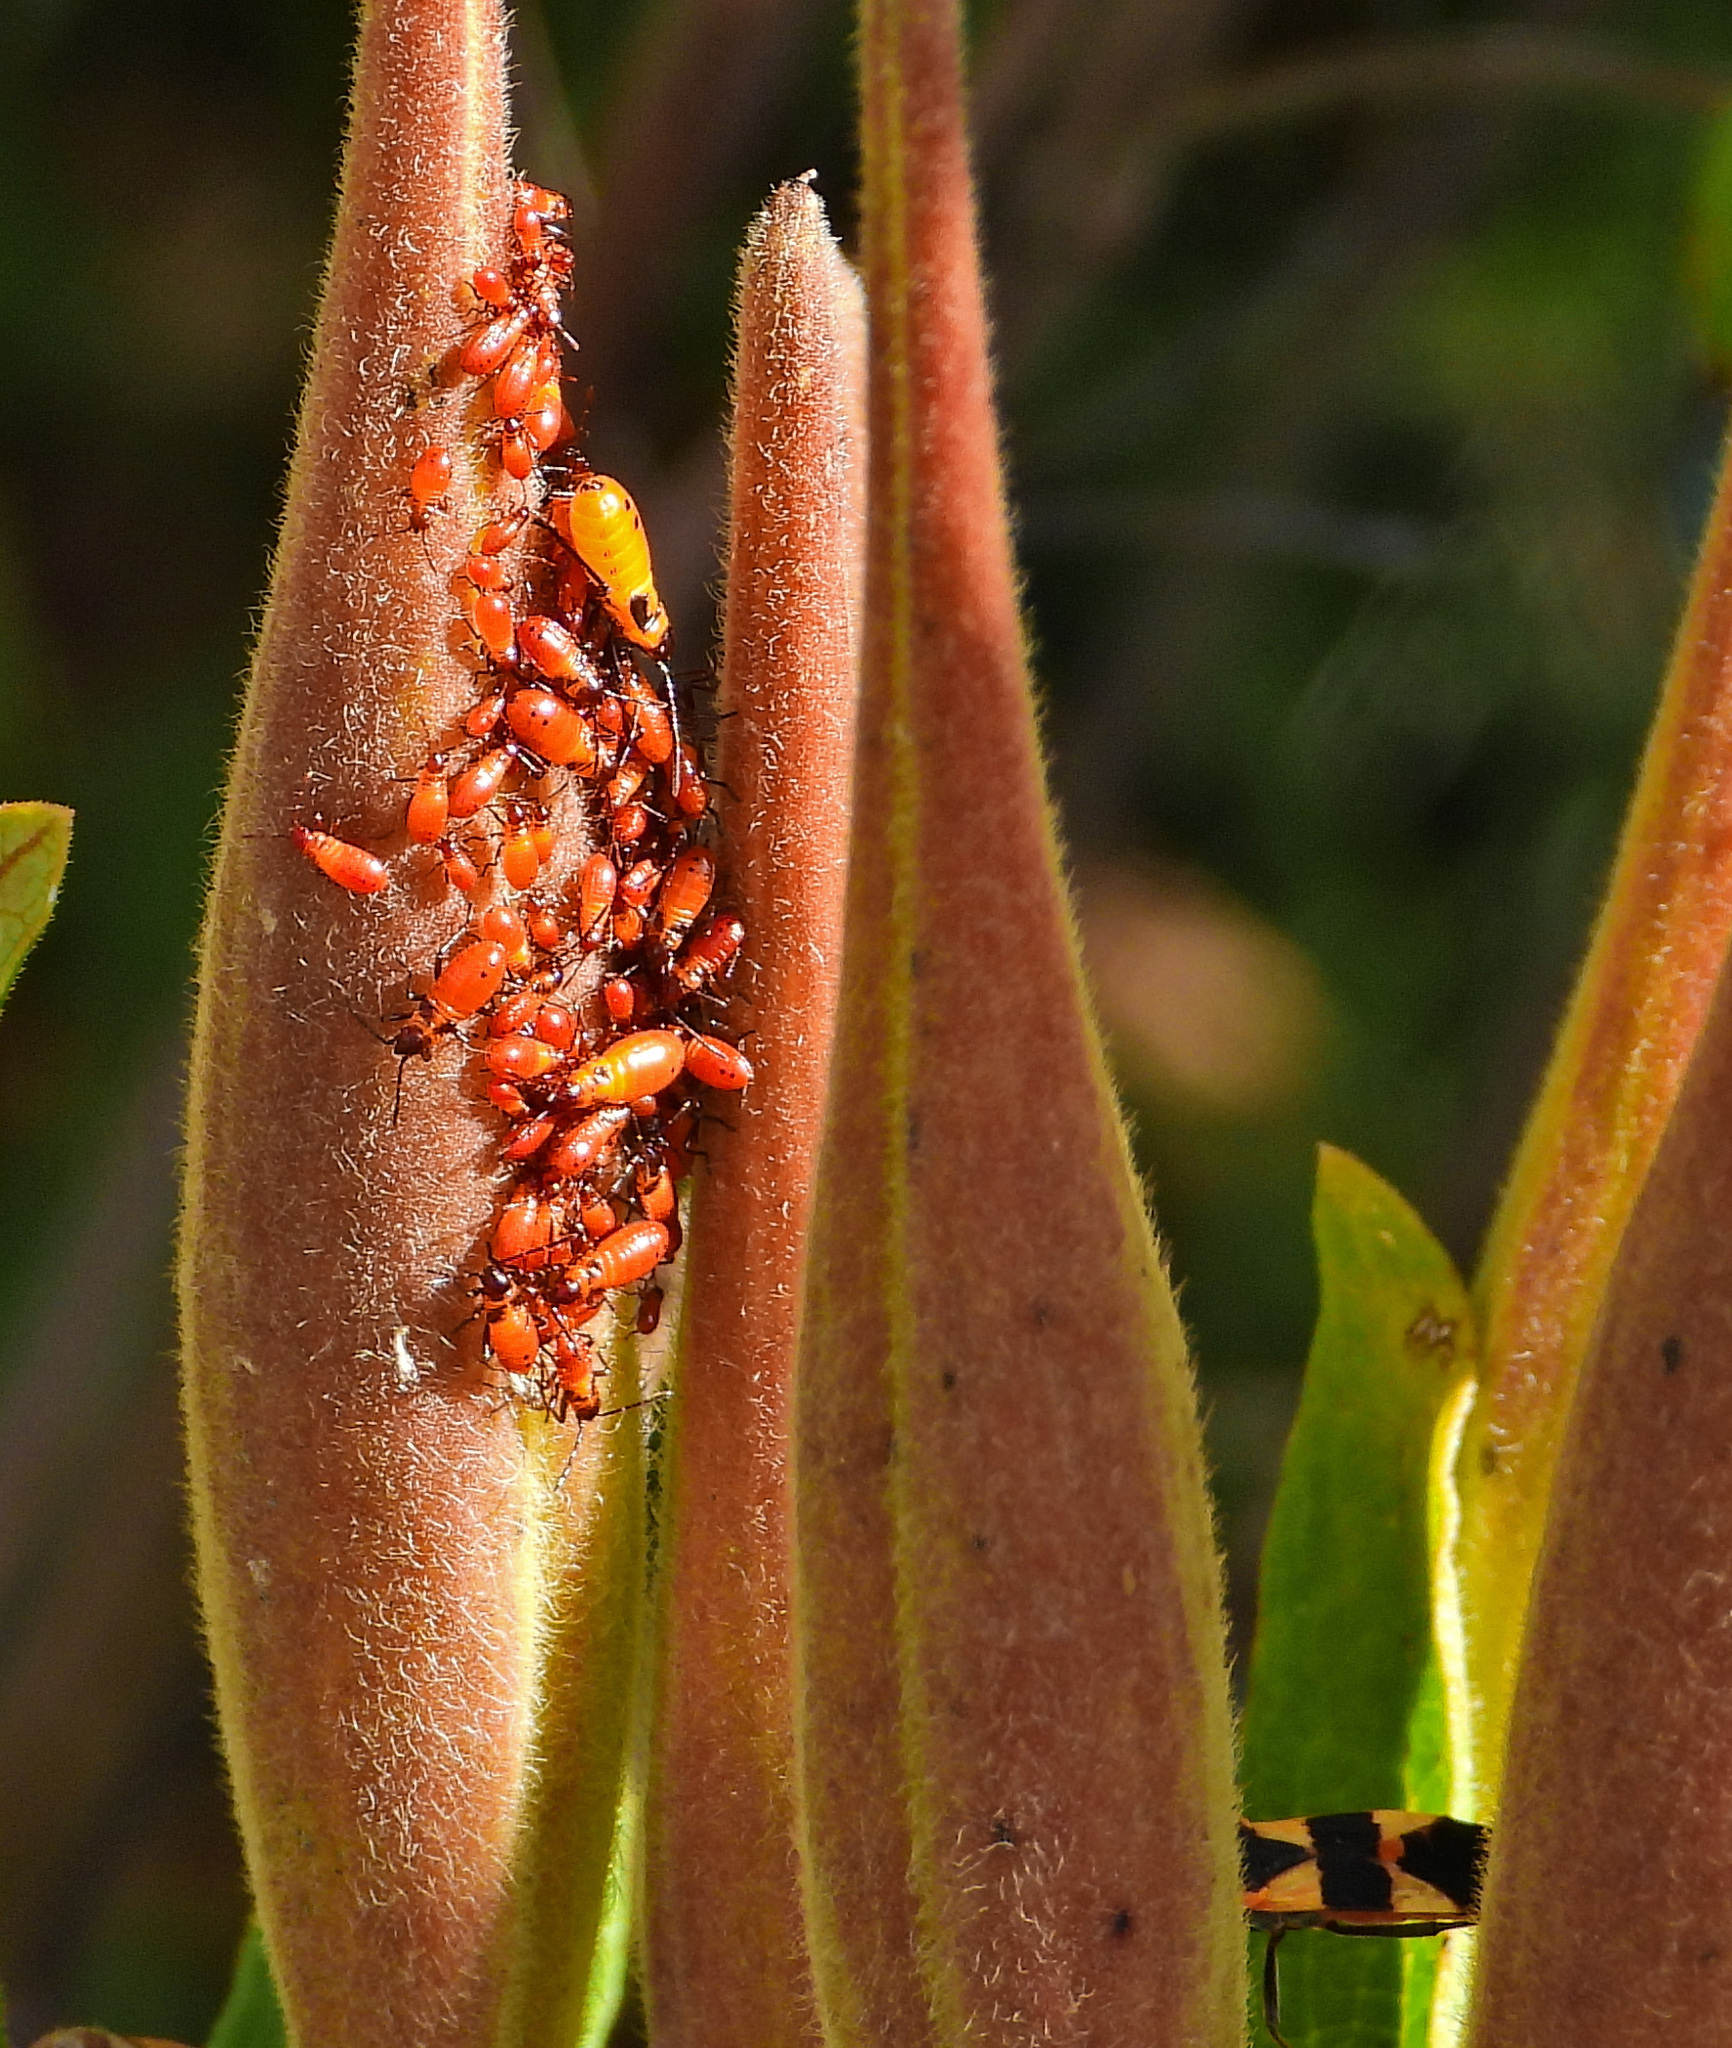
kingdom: Animalia
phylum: Arthropoda
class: Insecta
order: Hemiptera
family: Lygaeidae
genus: Oncopeltus
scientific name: Oncopeltus fasciatus
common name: Large milkweed bug
